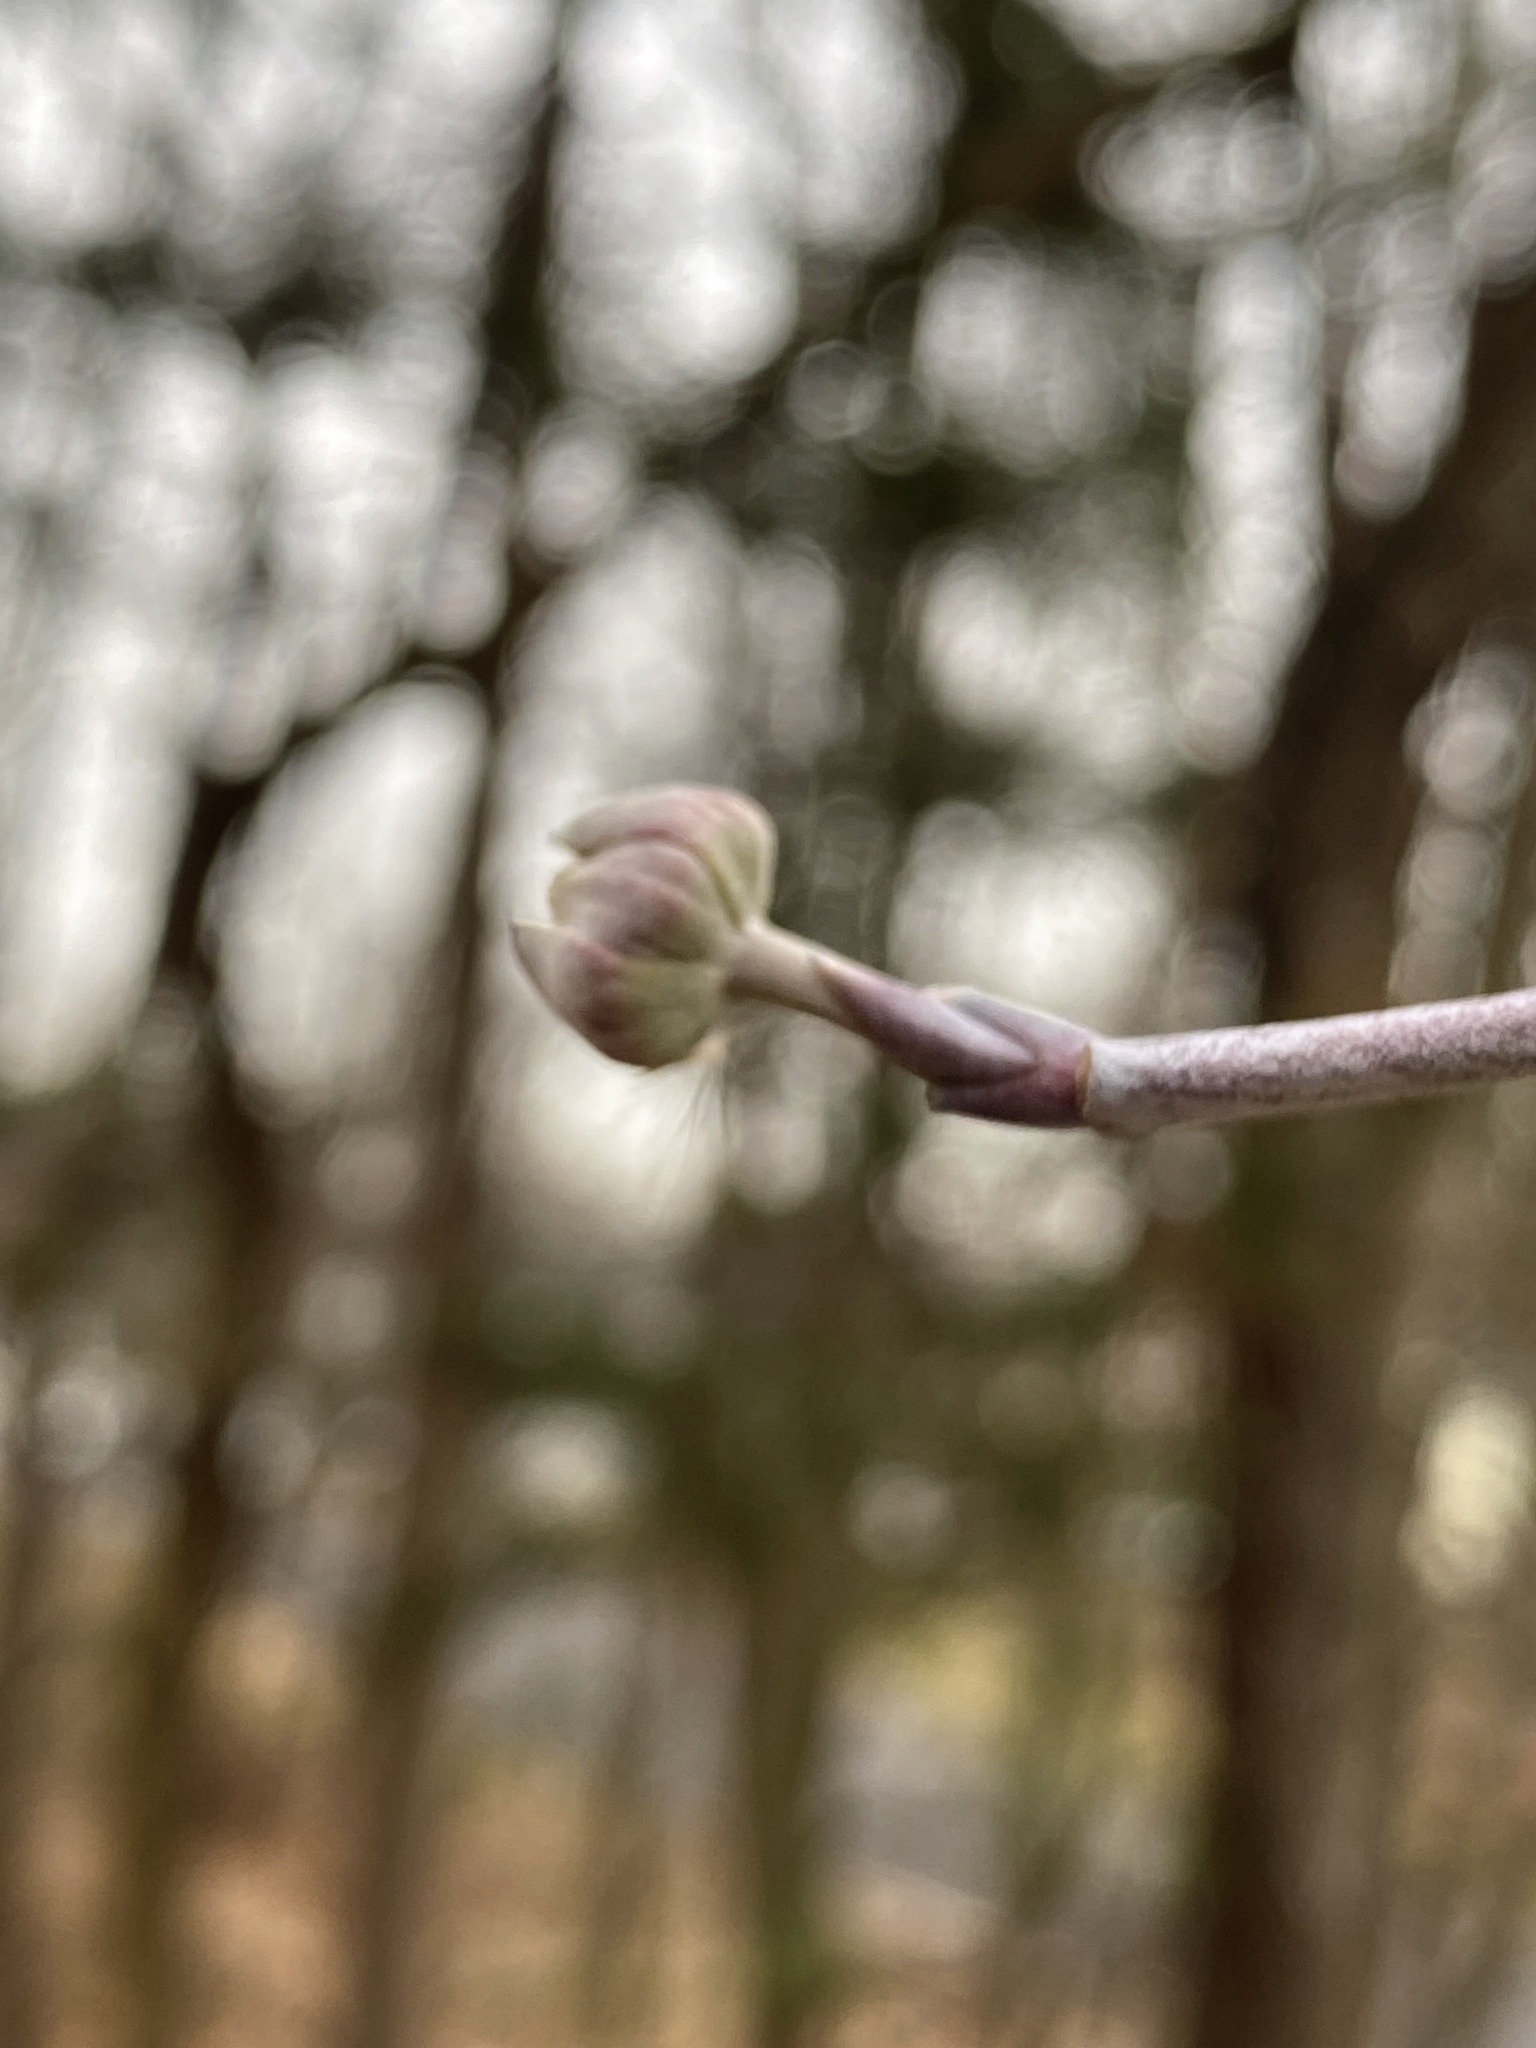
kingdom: Plantae
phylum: Tracheophyta
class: Magnoliopsida
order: Cornales
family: Cornaceae
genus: Cornus
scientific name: Cornus florida
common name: Flowering dogwood
